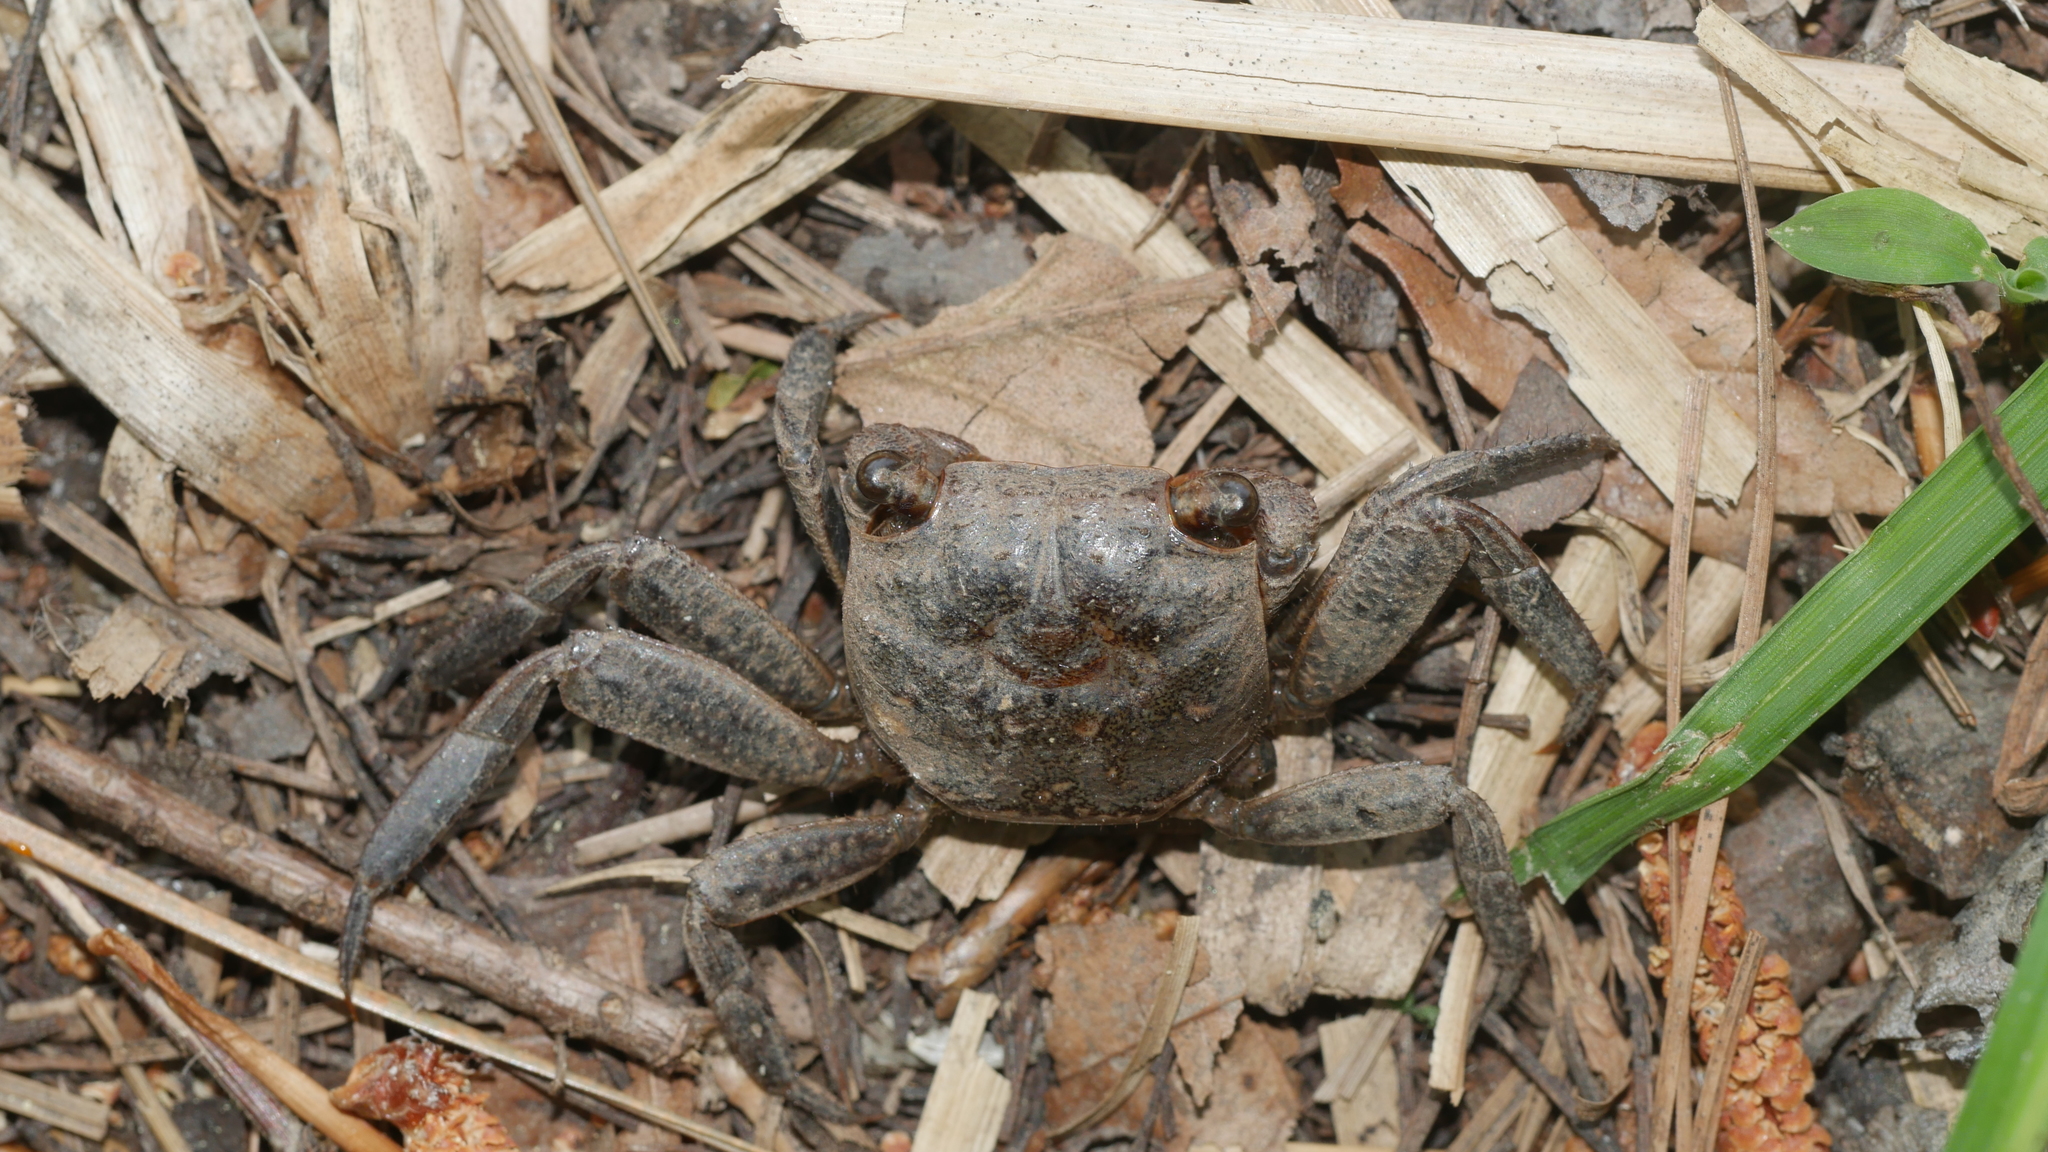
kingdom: Animalia
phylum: Arthropoda
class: Malacostraca
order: Decapoda
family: Sesarmidae
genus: Armases
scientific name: Armases cinereum
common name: Squareback marsh crab
